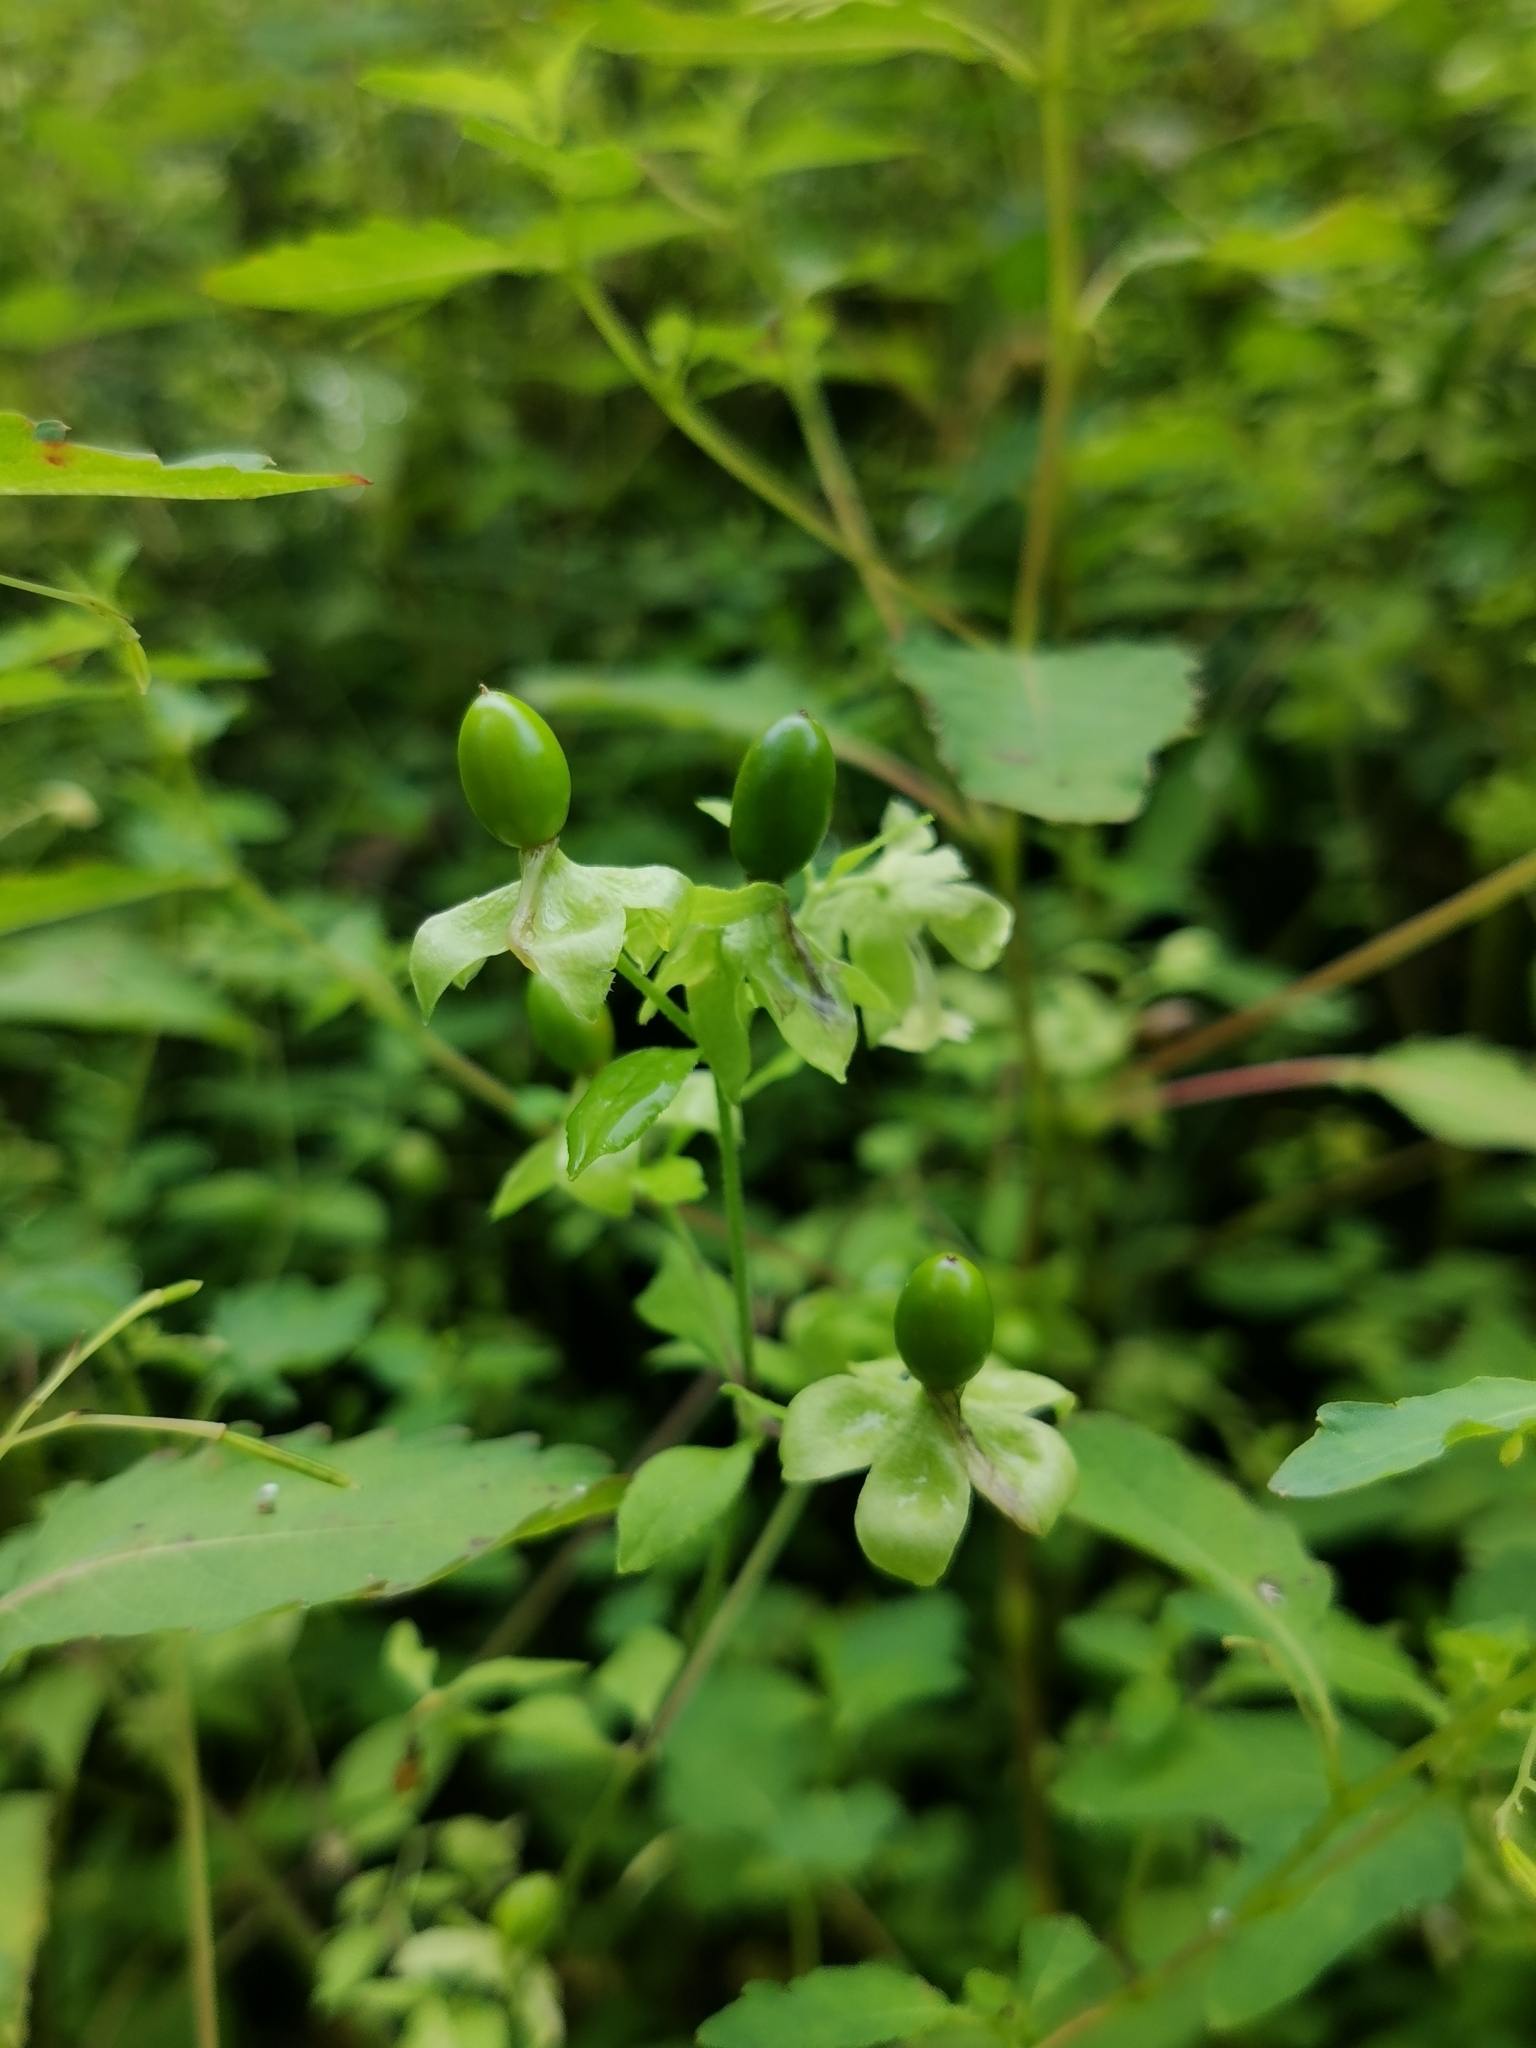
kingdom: Plantae
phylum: Tracheophyta
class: Magnoliopsida
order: Caryophyllales
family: Caryophyllaceae
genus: Silene
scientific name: Silene baccifera
